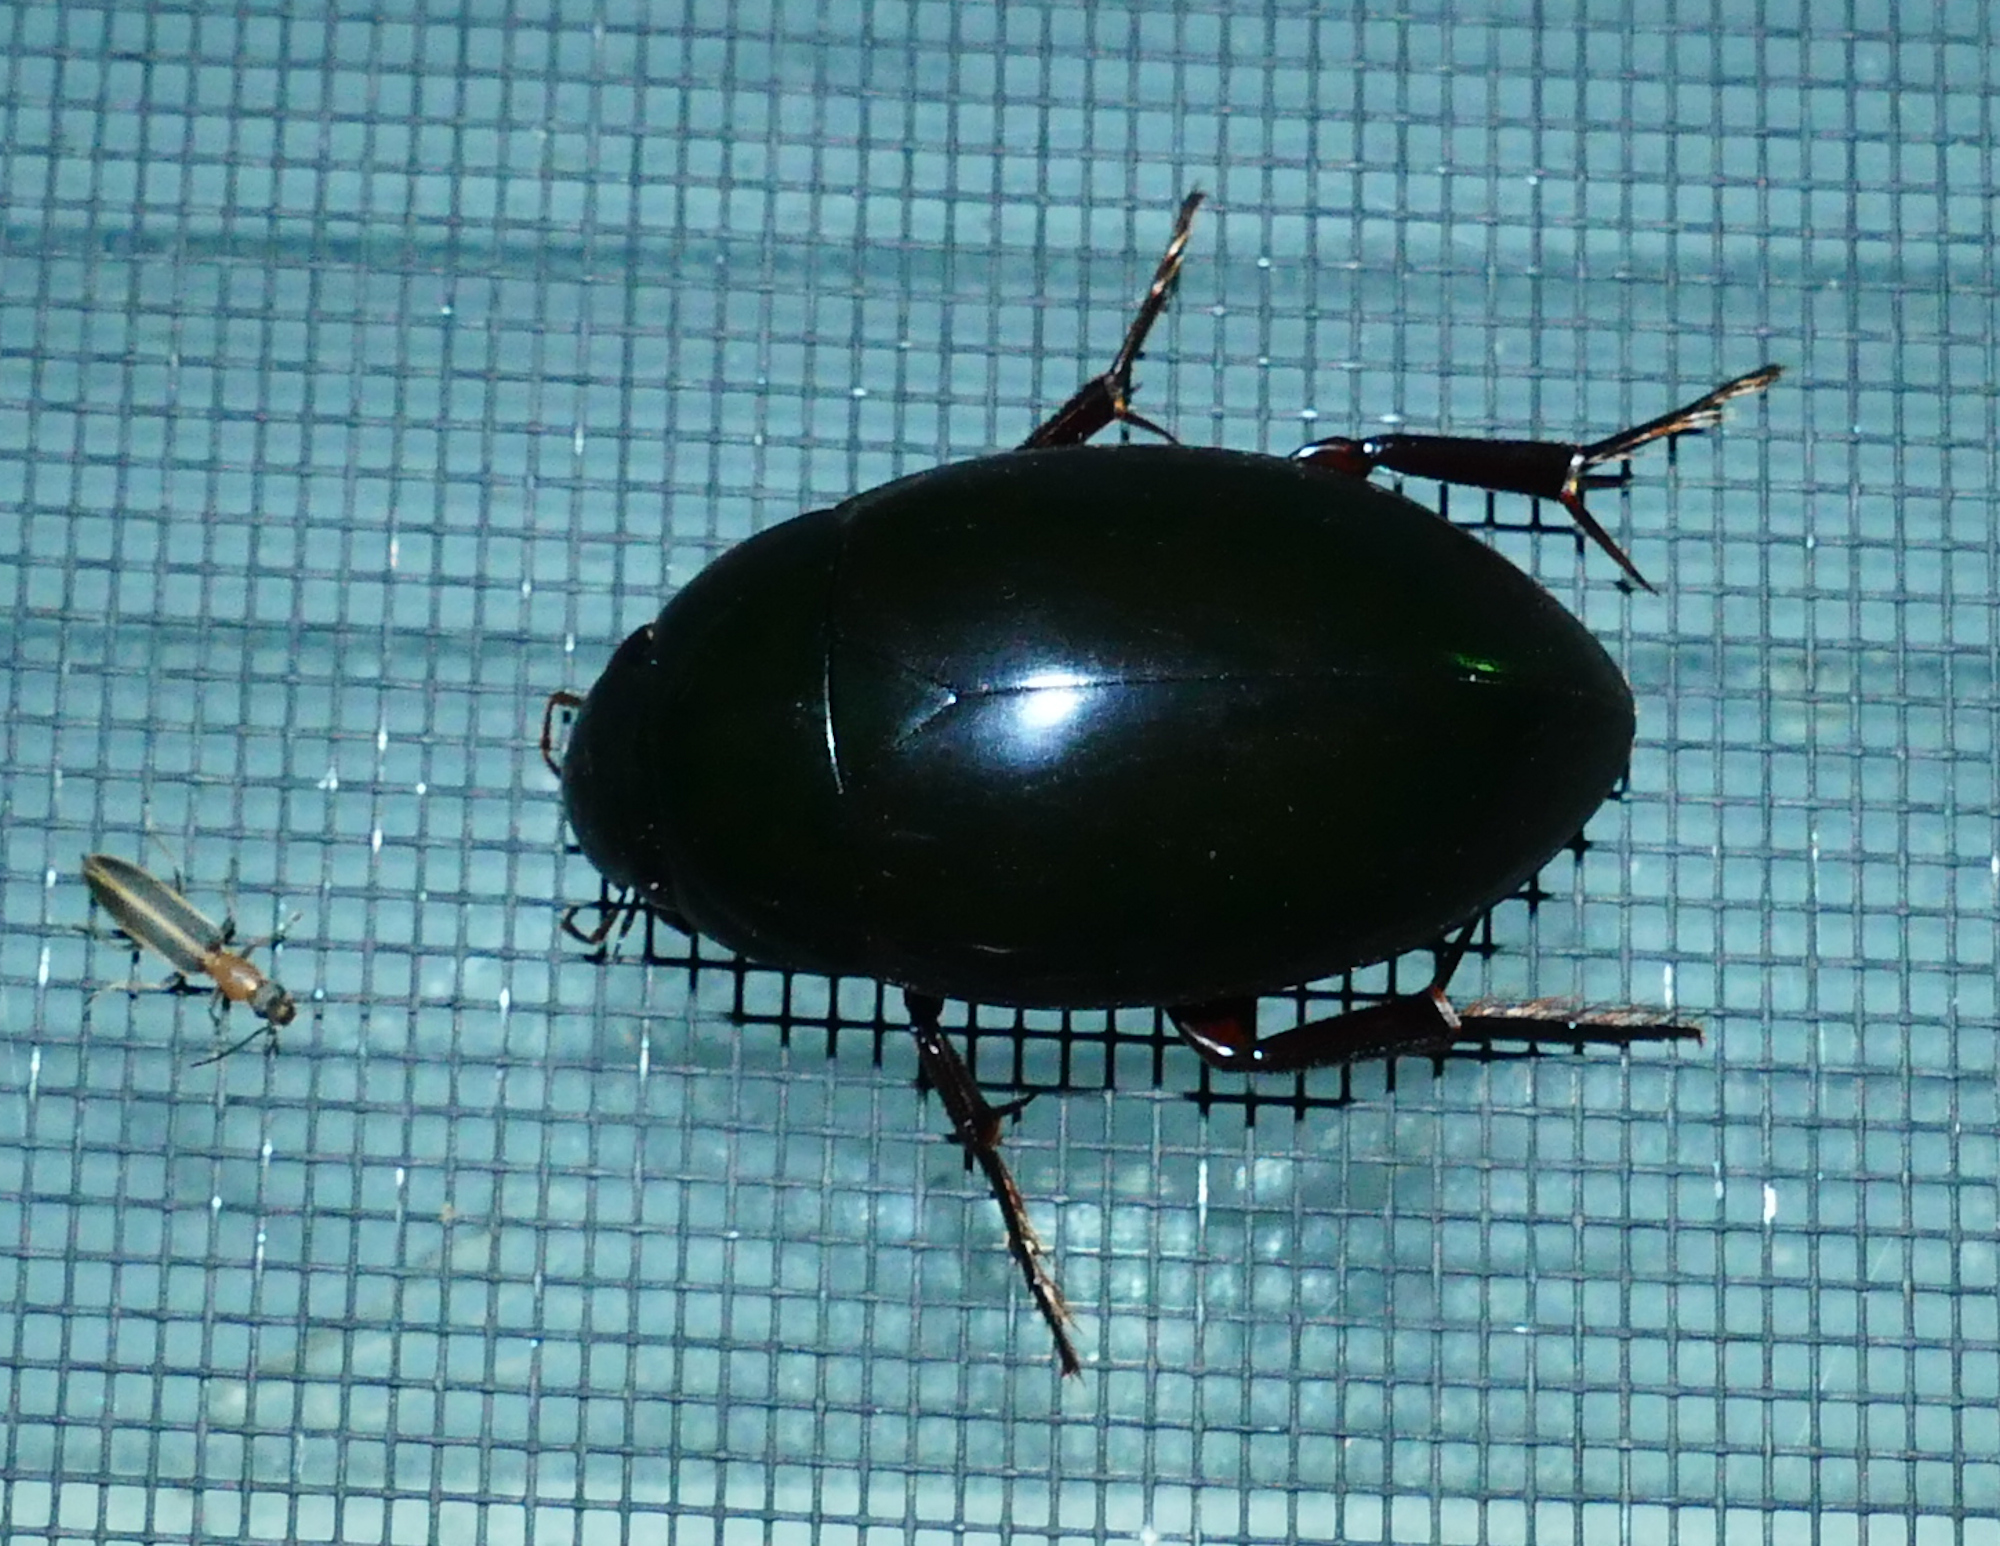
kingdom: Animalia
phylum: Arthropoda
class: Insecta
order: Coleoptera
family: Hydrophilidae
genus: Hydrophilus
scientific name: Hydrophilus ovatus
